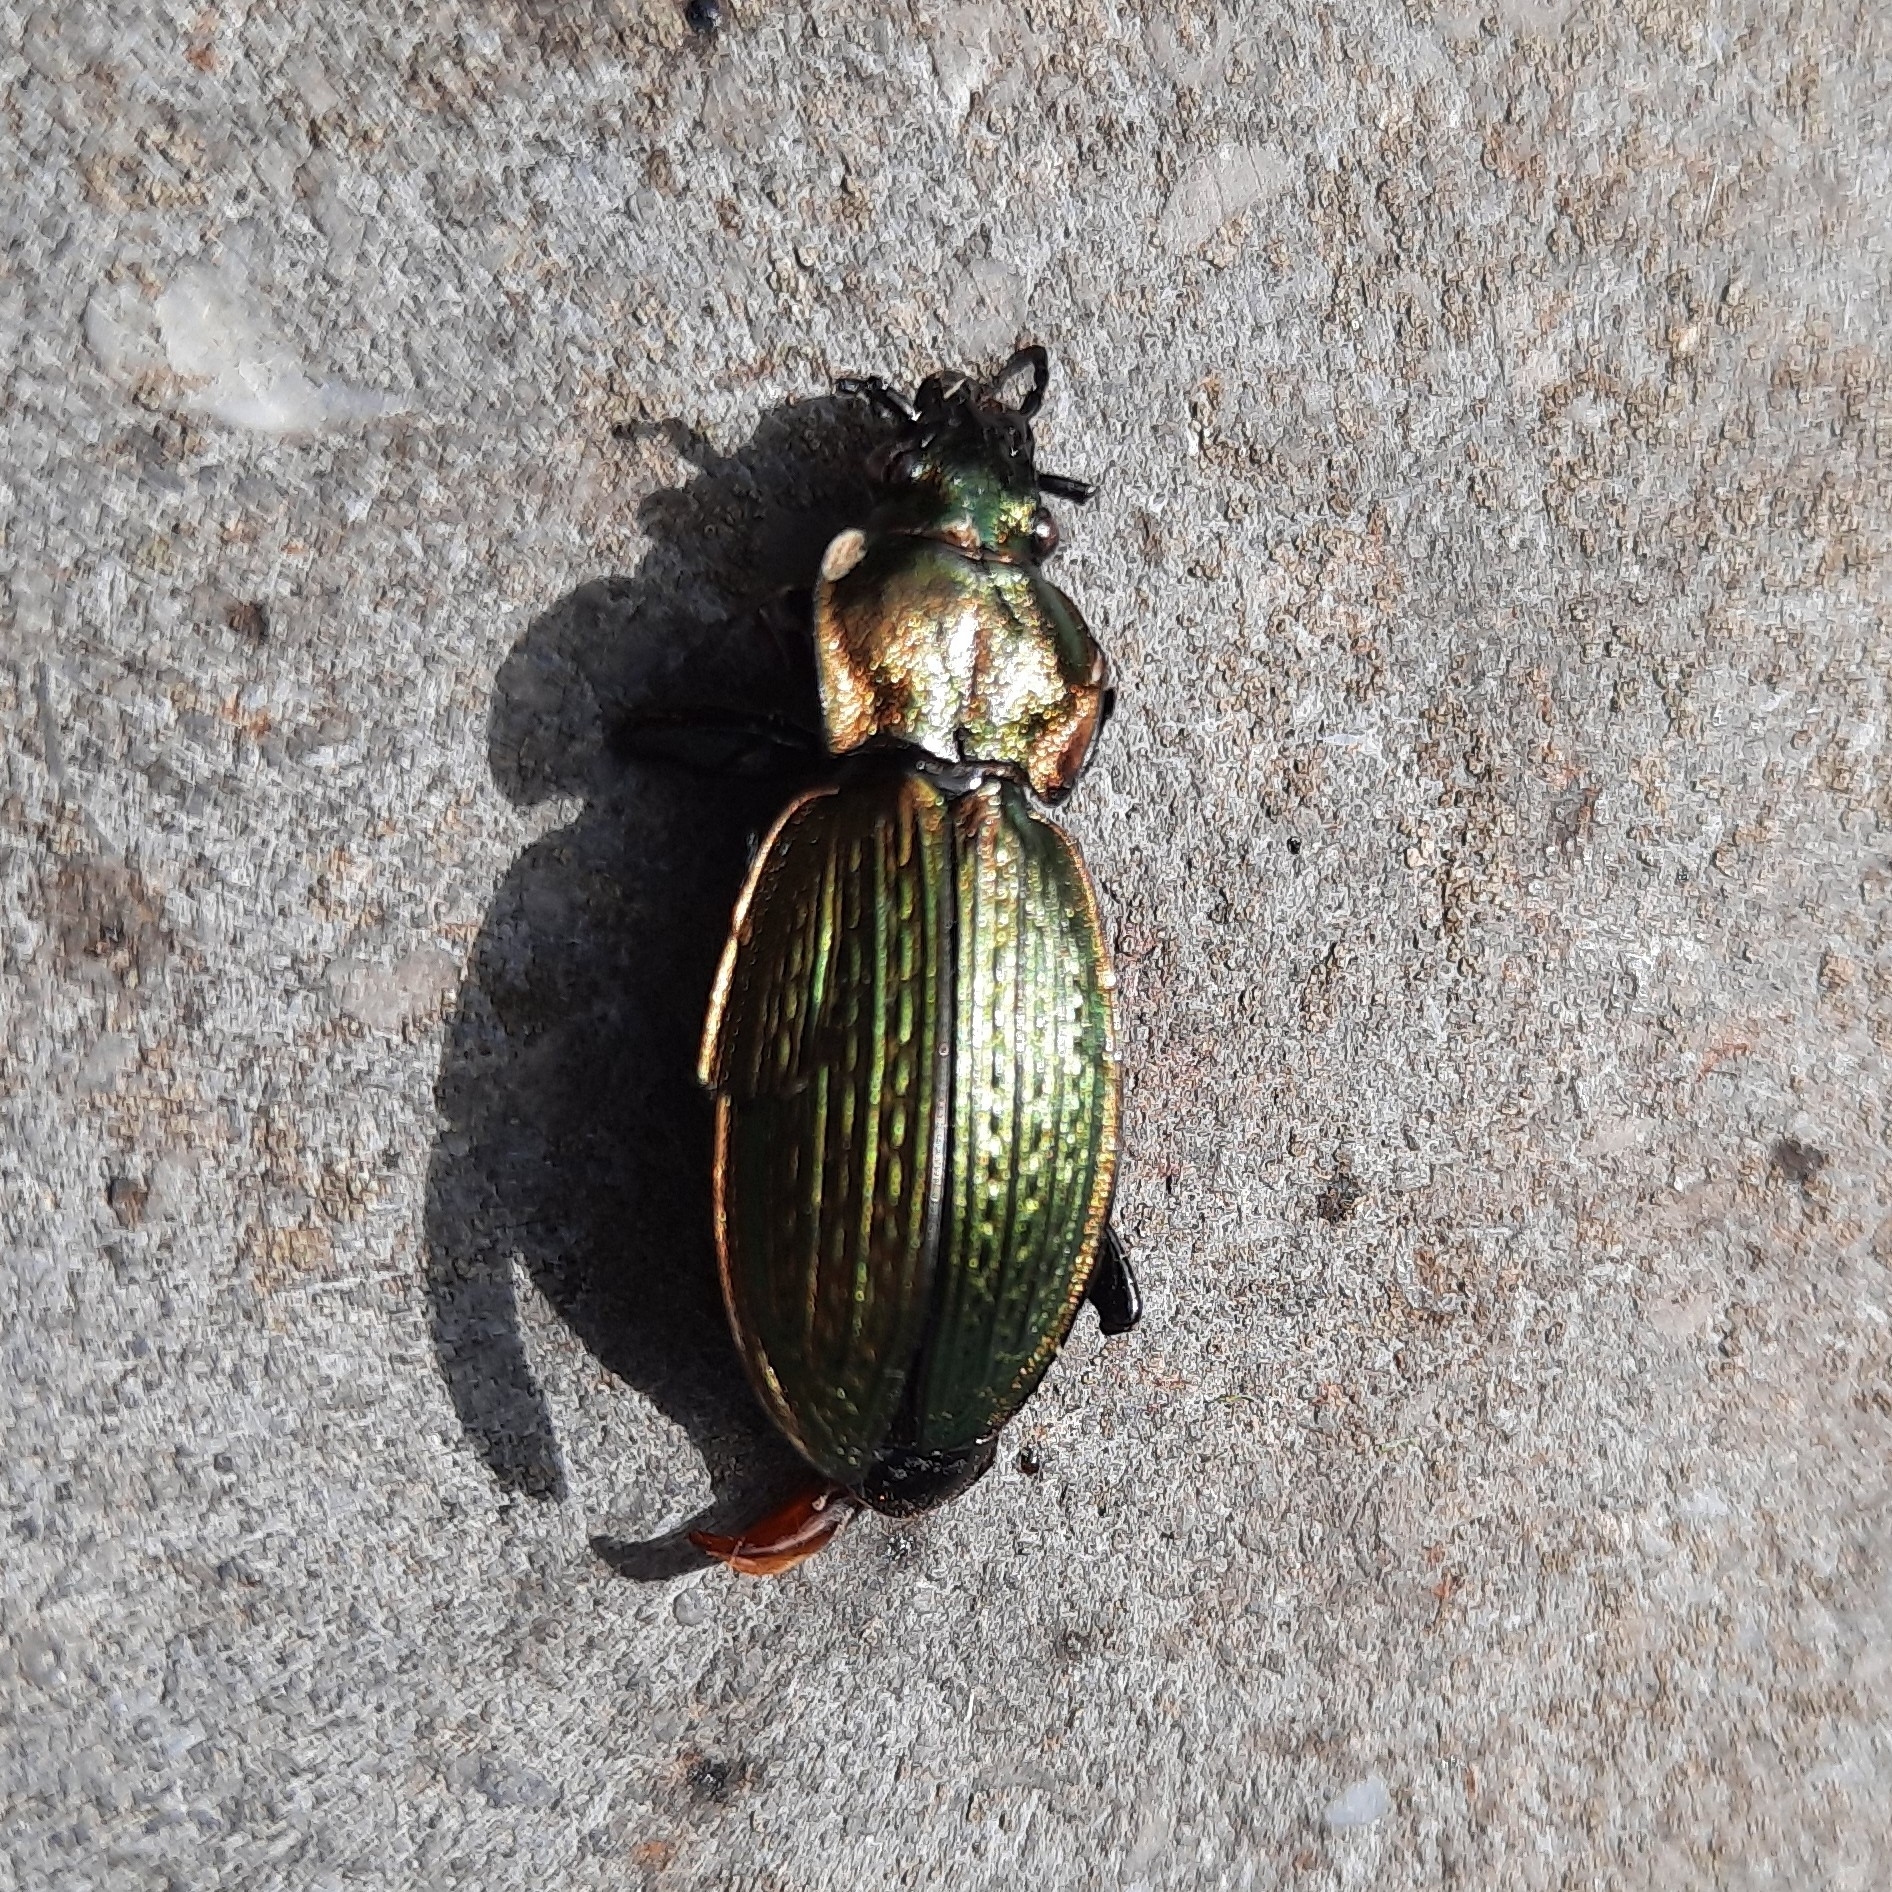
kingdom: Animalia
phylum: Arthropoda
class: Insecta
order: Coleoptera
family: Carabidae
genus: Carabus
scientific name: Carabus monilis
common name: Necklace ground beetle
